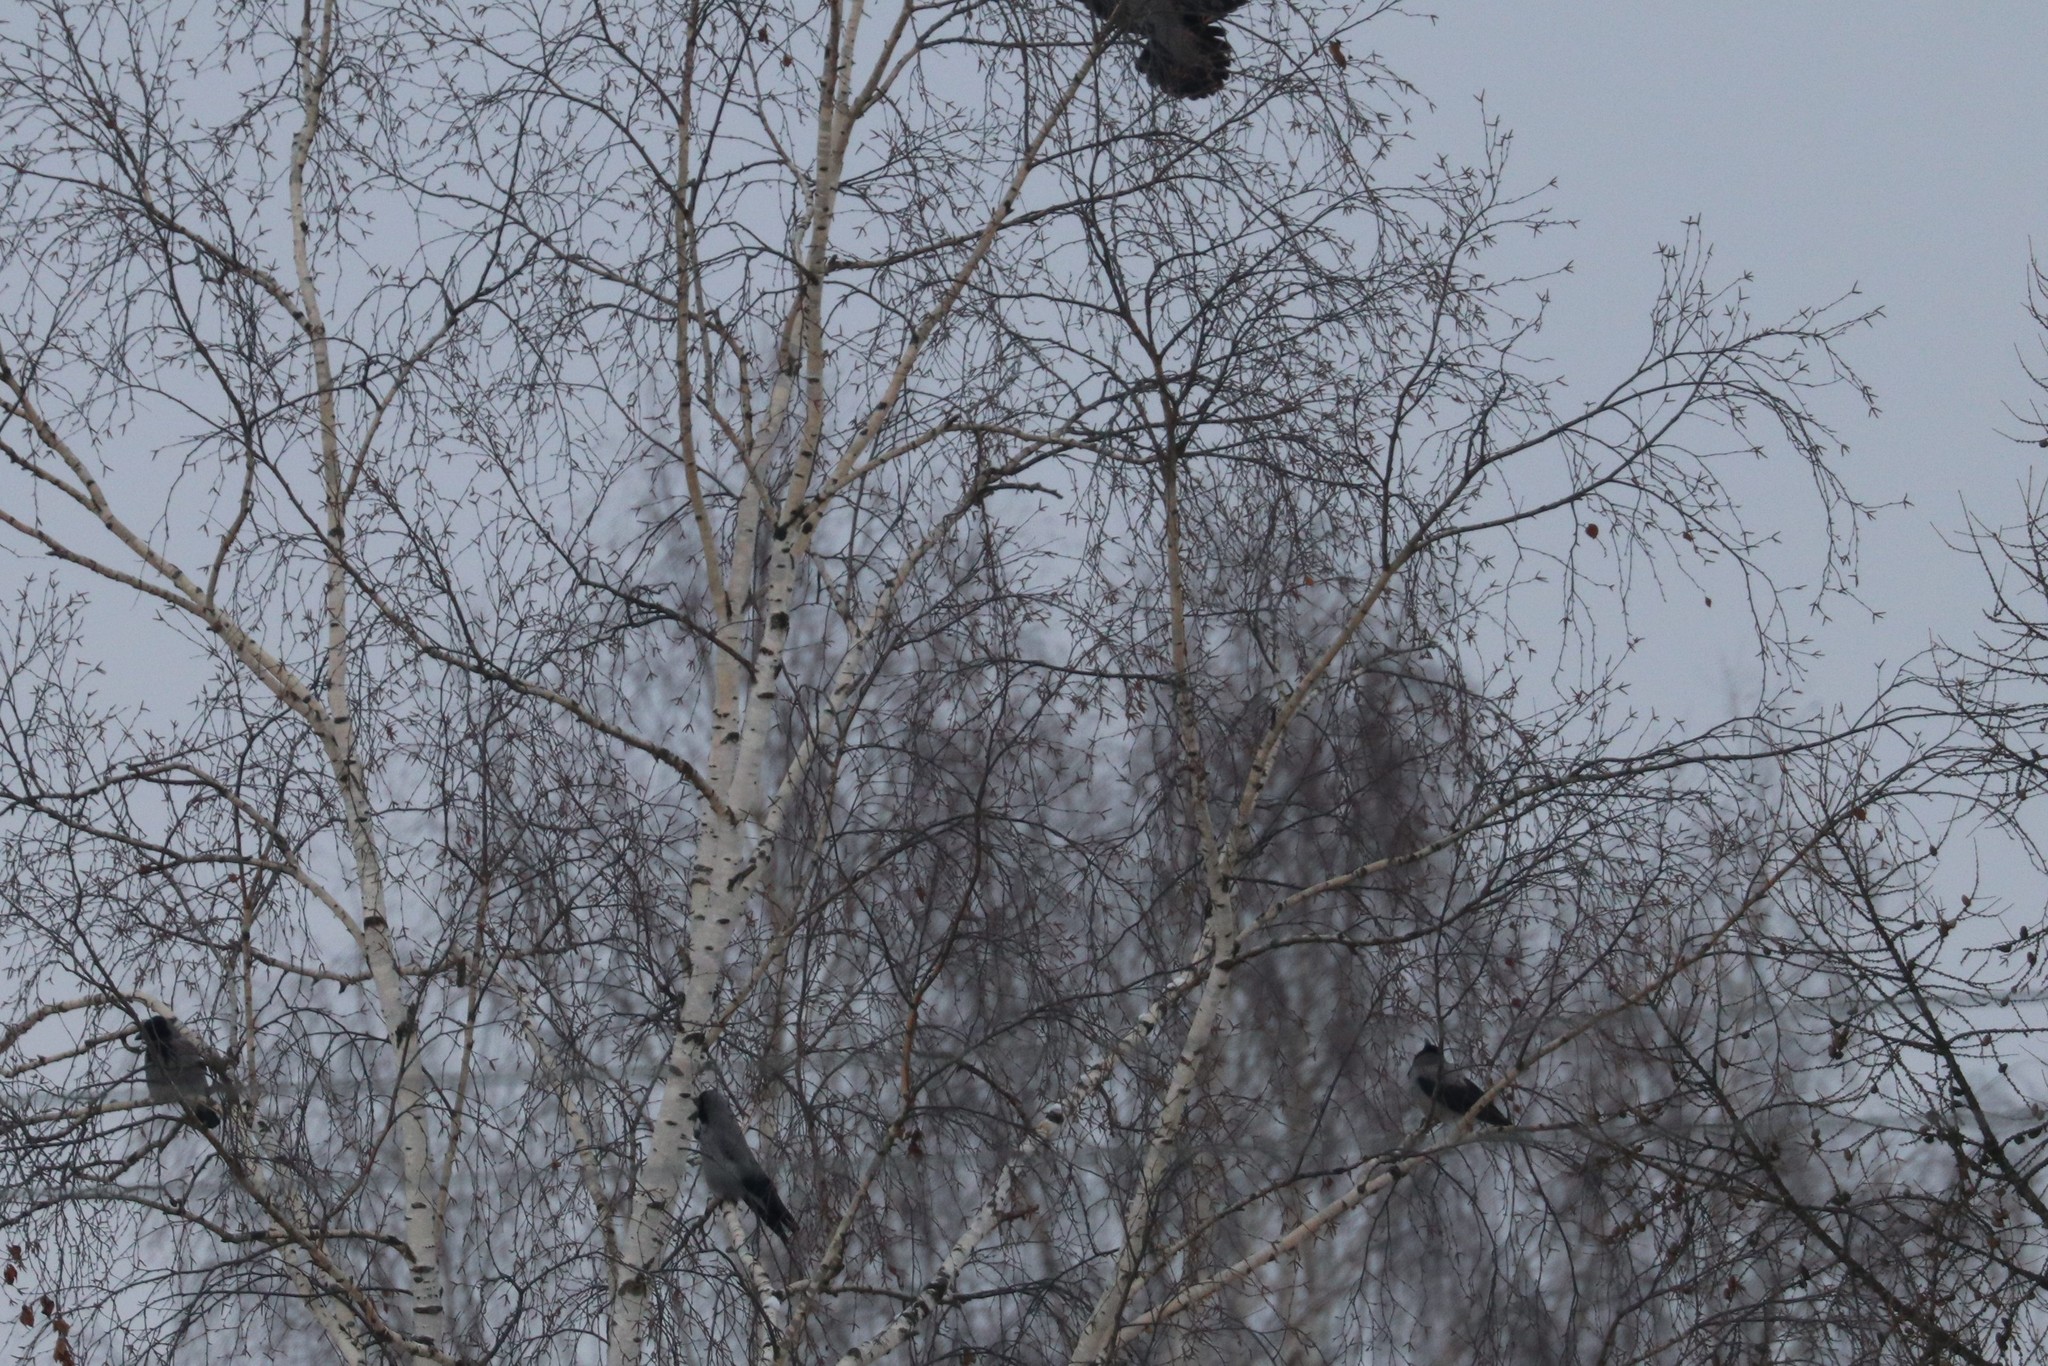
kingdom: Animalia
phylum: Chordata
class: Aves
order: Passeriformes
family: Corvidae
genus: Corvus
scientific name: Corvus cornix
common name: Hooded crow
